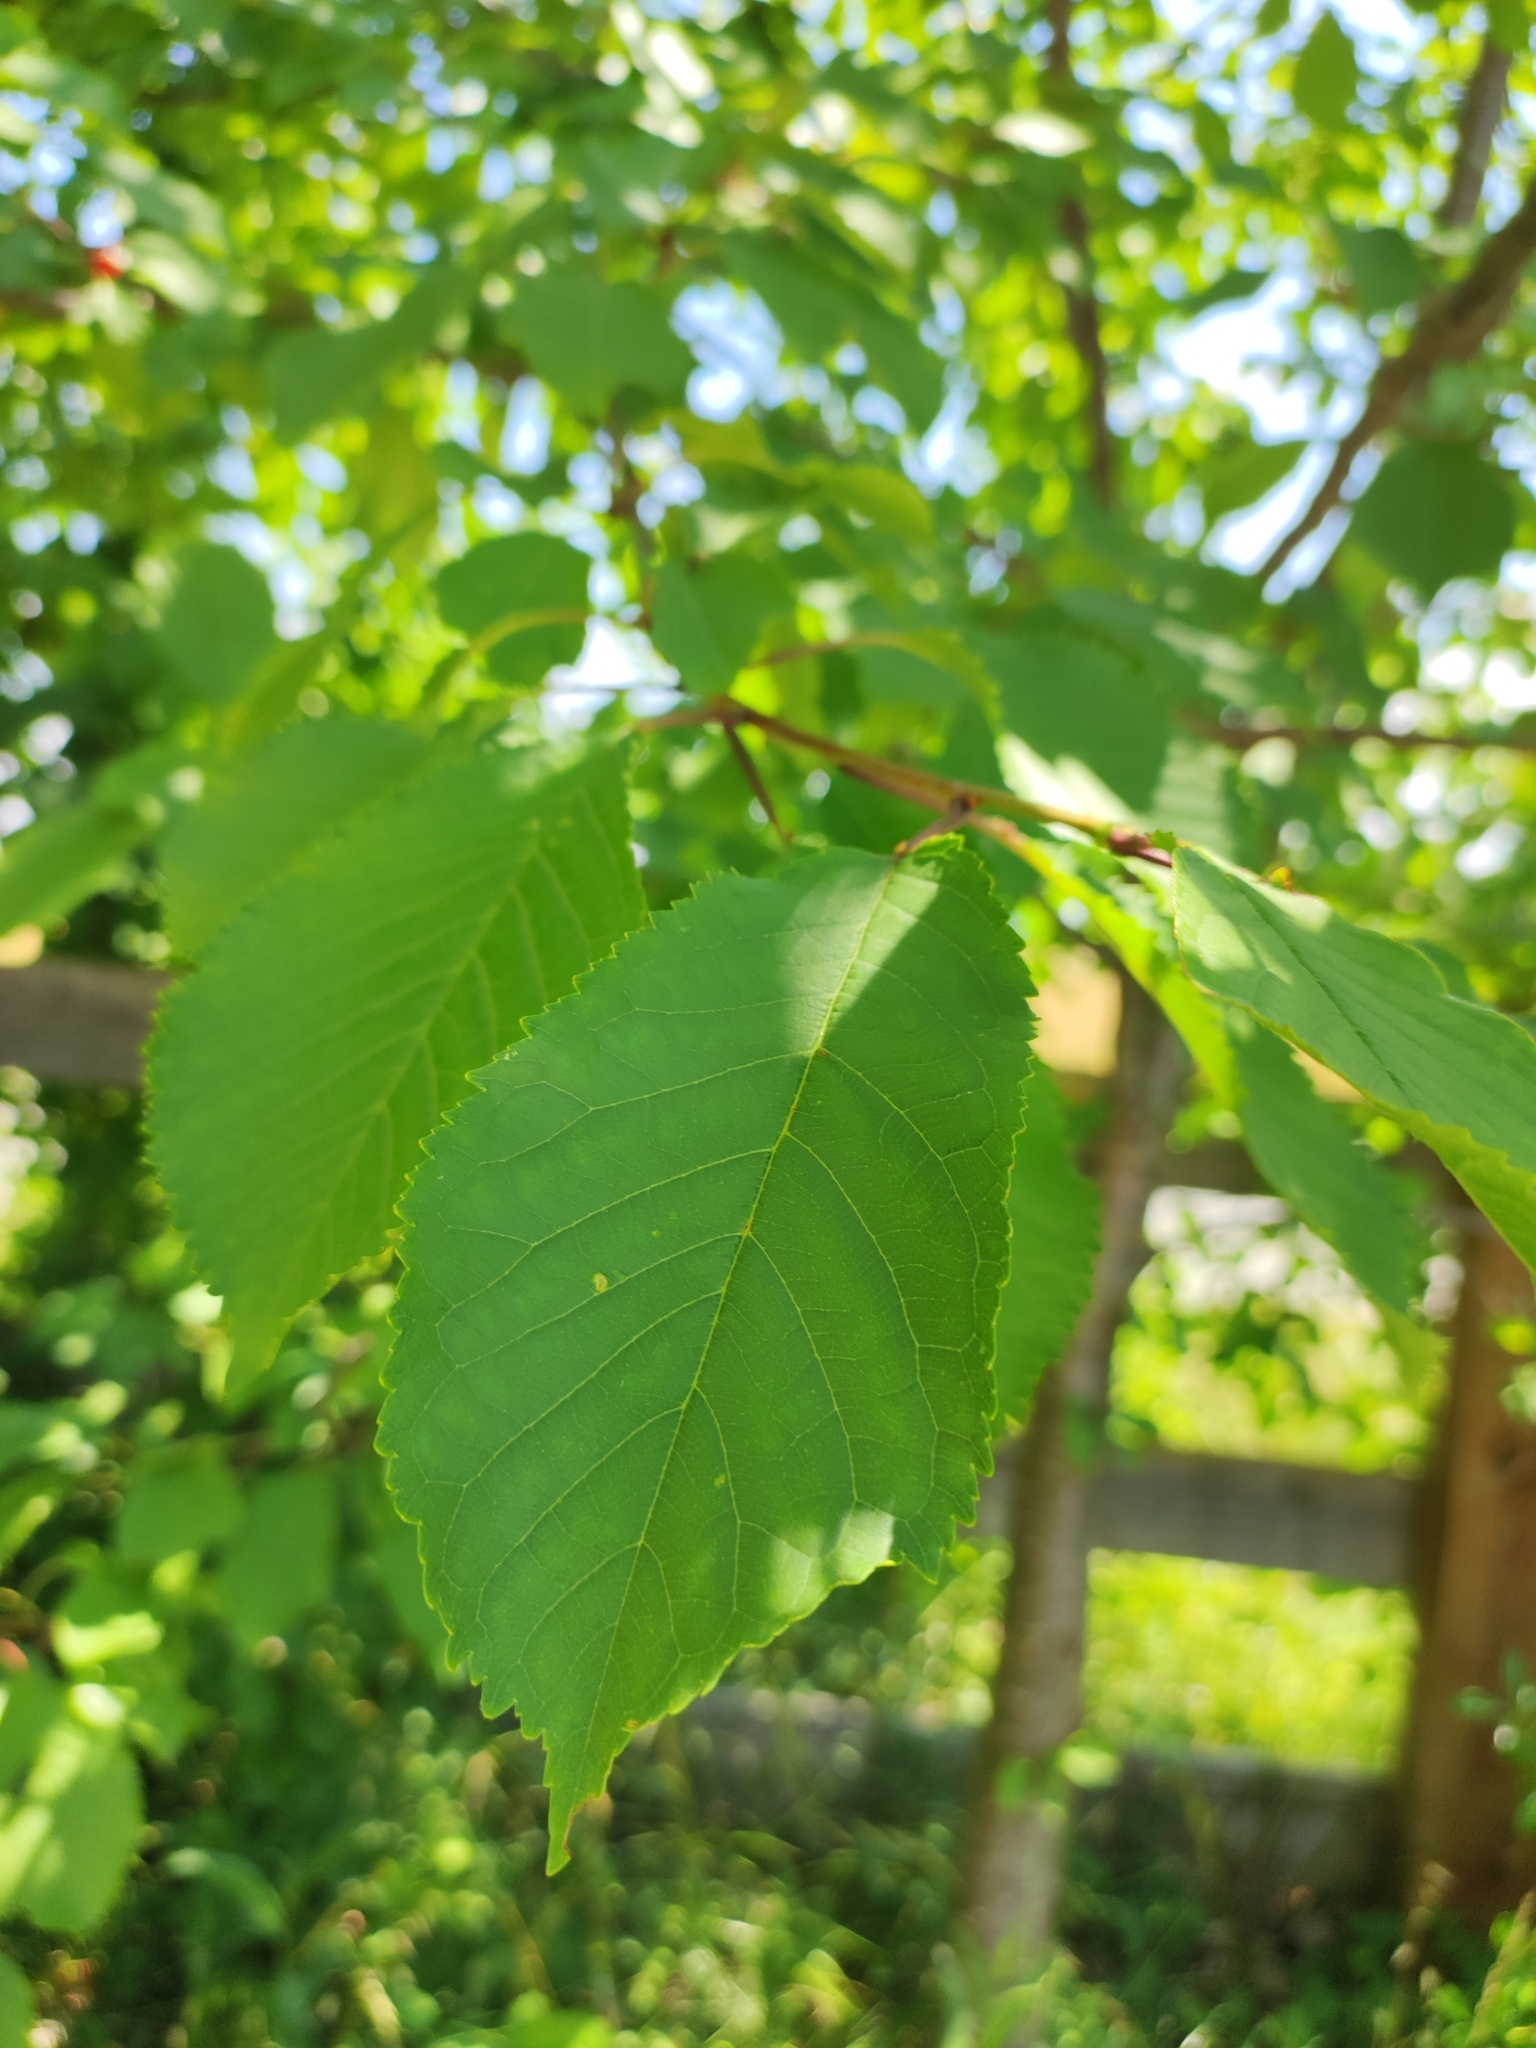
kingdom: Plantae
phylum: Tracheophyta
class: Magnoliopsida
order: Rosales
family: Rosaceae
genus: Prunus
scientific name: Prunus avium
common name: Sweet cherry
